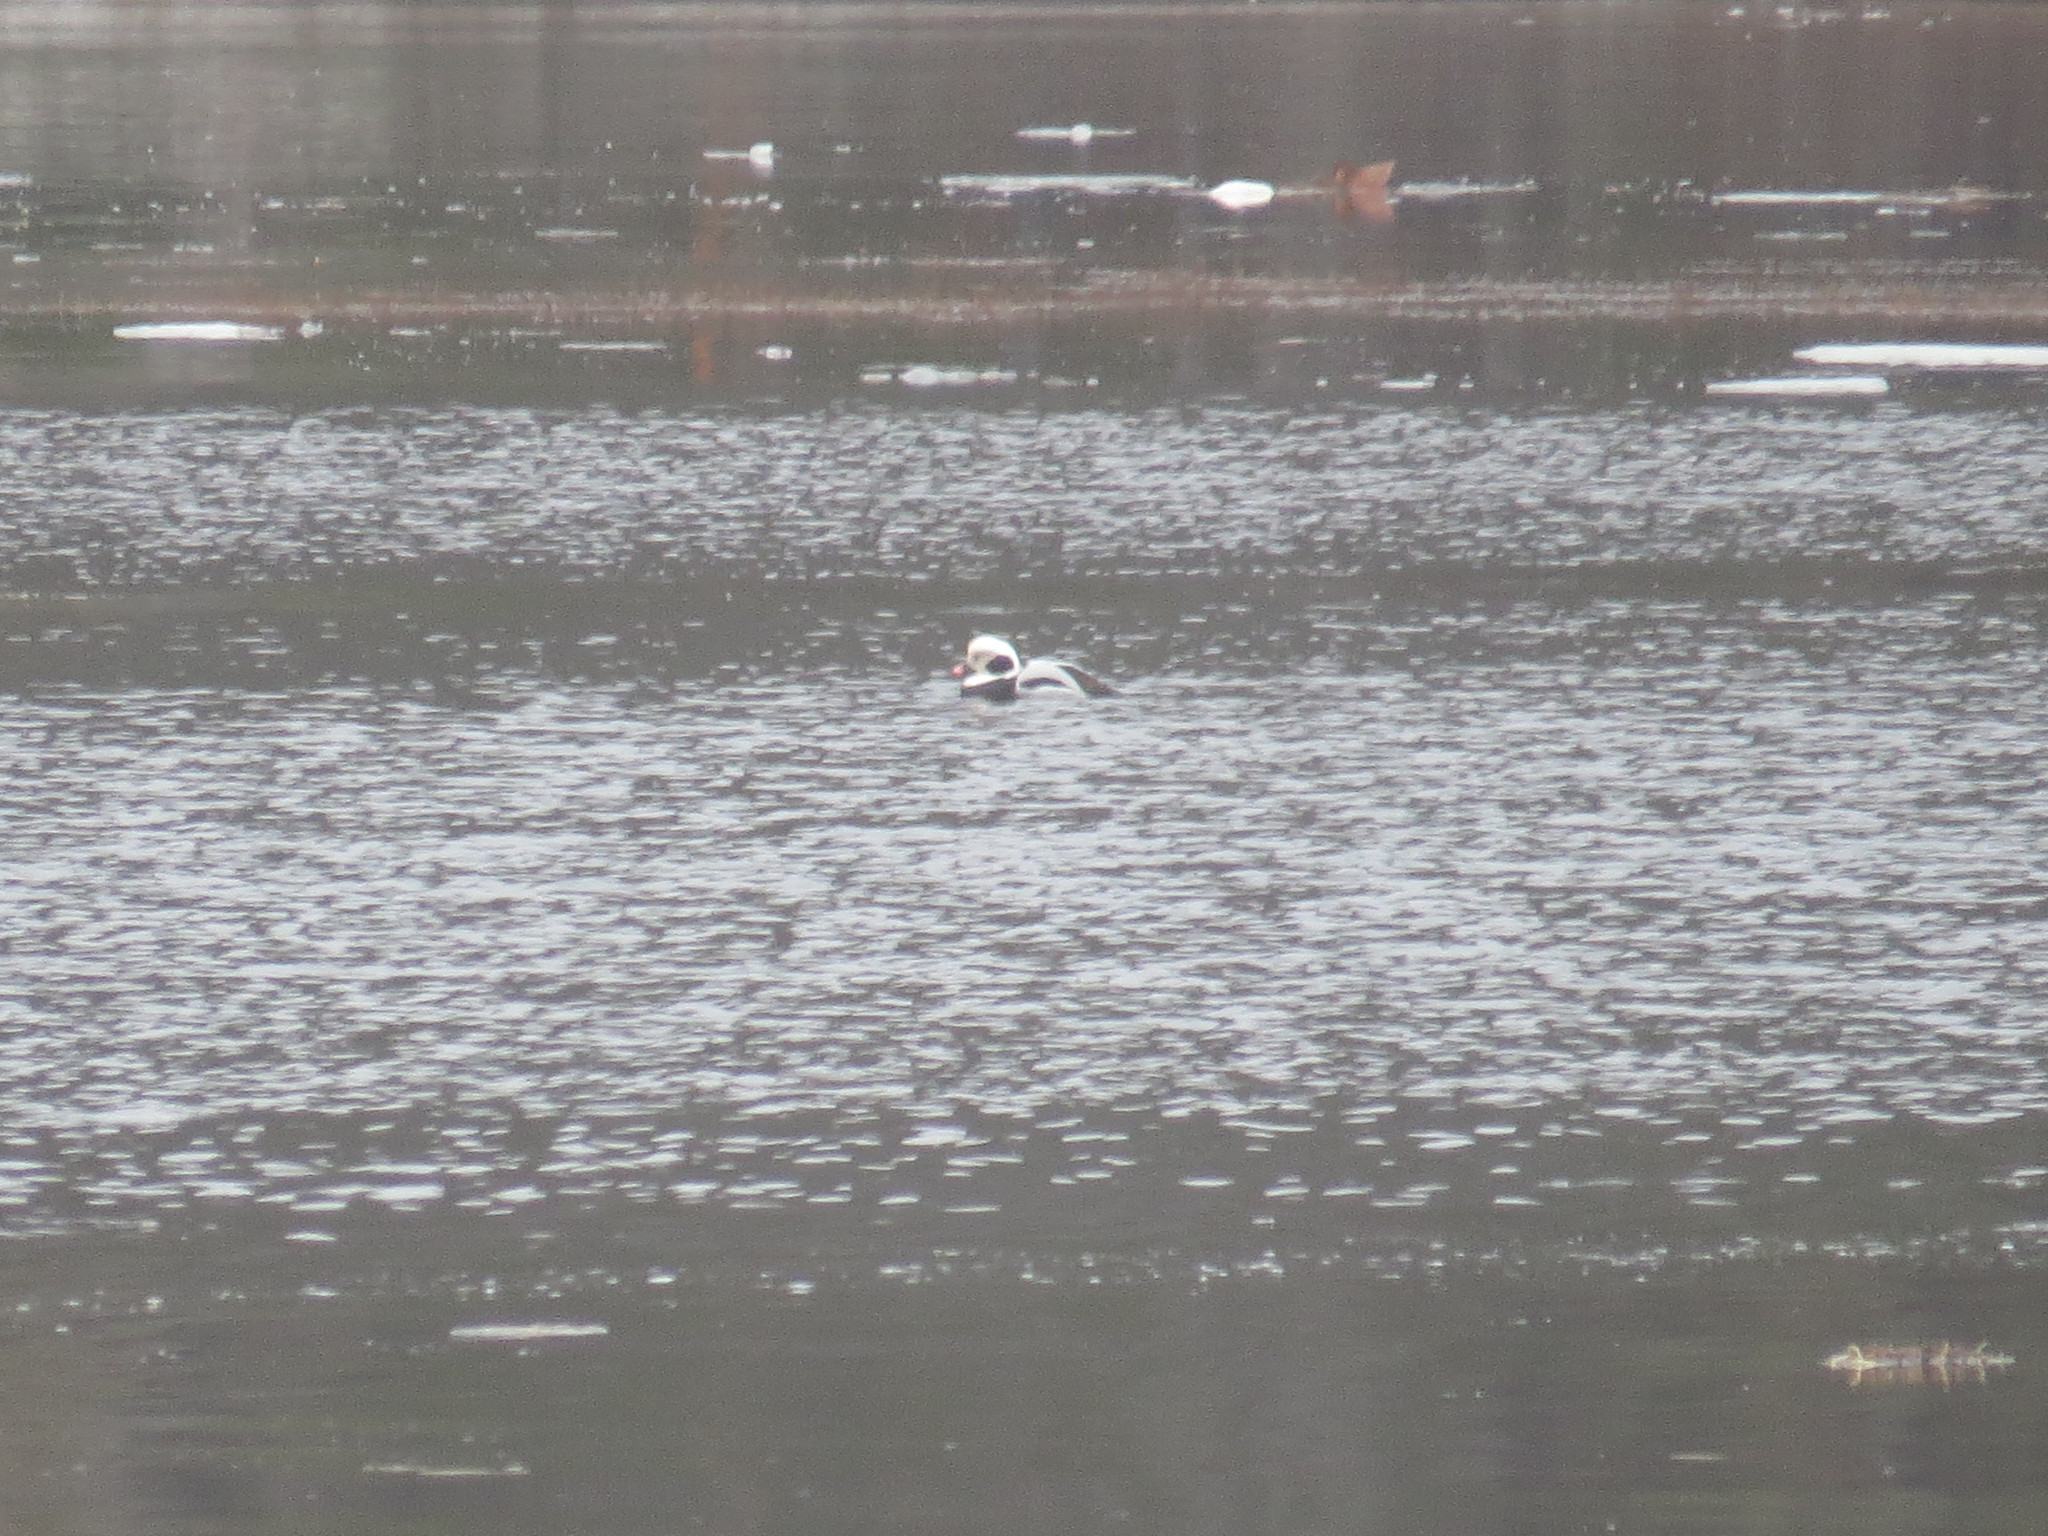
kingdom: Animalia
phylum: Chordata
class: Aves
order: Anseriformes
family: Anatidae
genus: Clangula
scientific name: Clangula hyemalis
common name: Long-tailed duck
